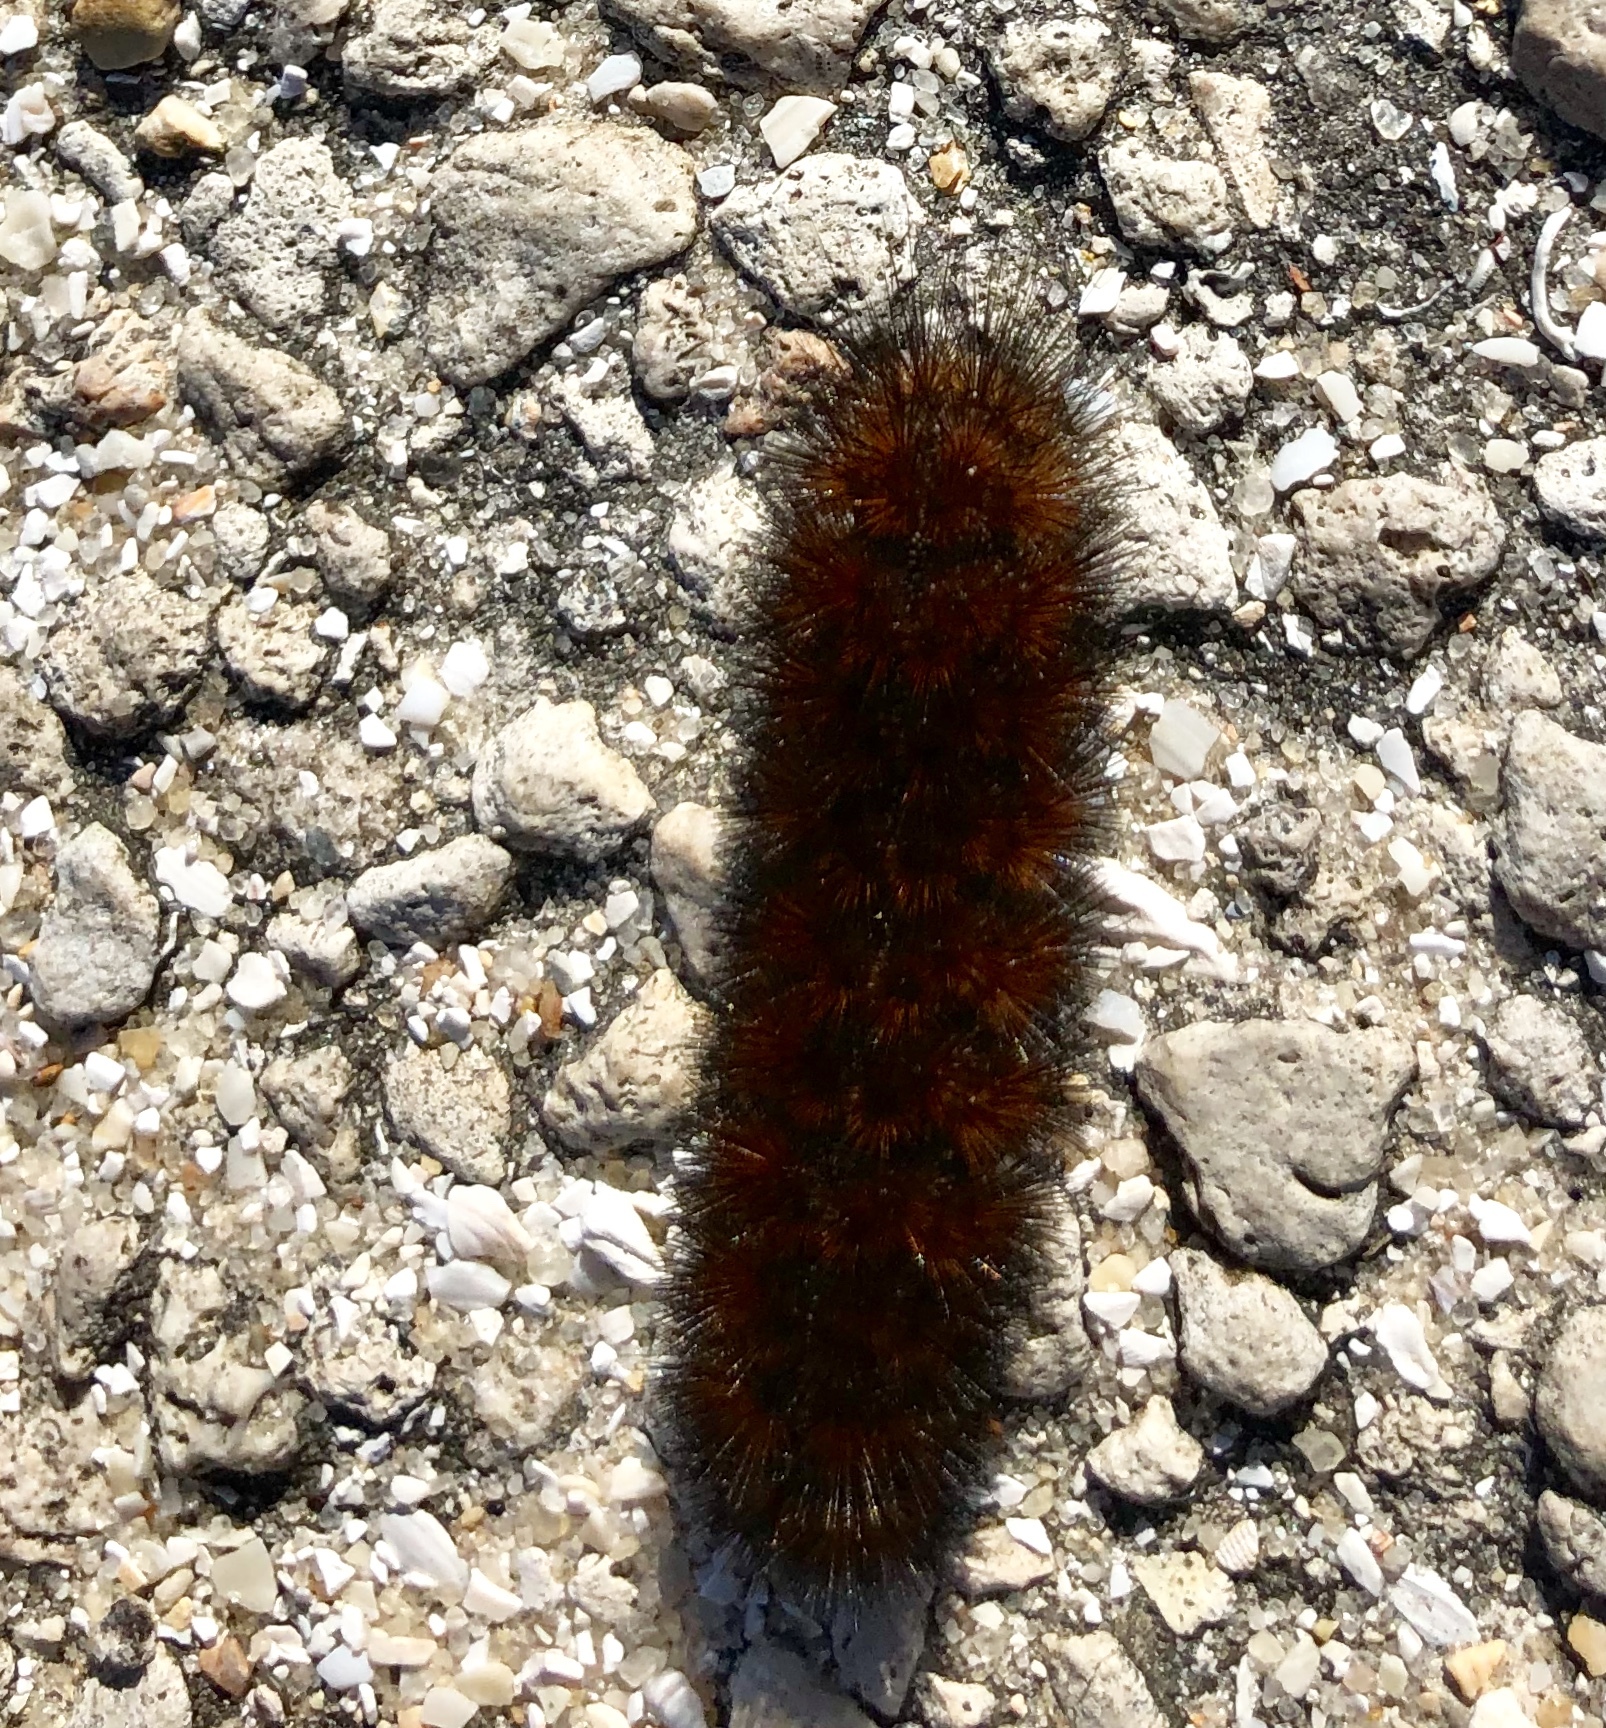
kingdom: Animalia
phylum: Arthropoda
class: Insecta
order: Lepidoptera
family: Erebidae
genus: Pyrrharctia
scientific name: Pyrrharctia isabella
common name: Isabella tiger moth
